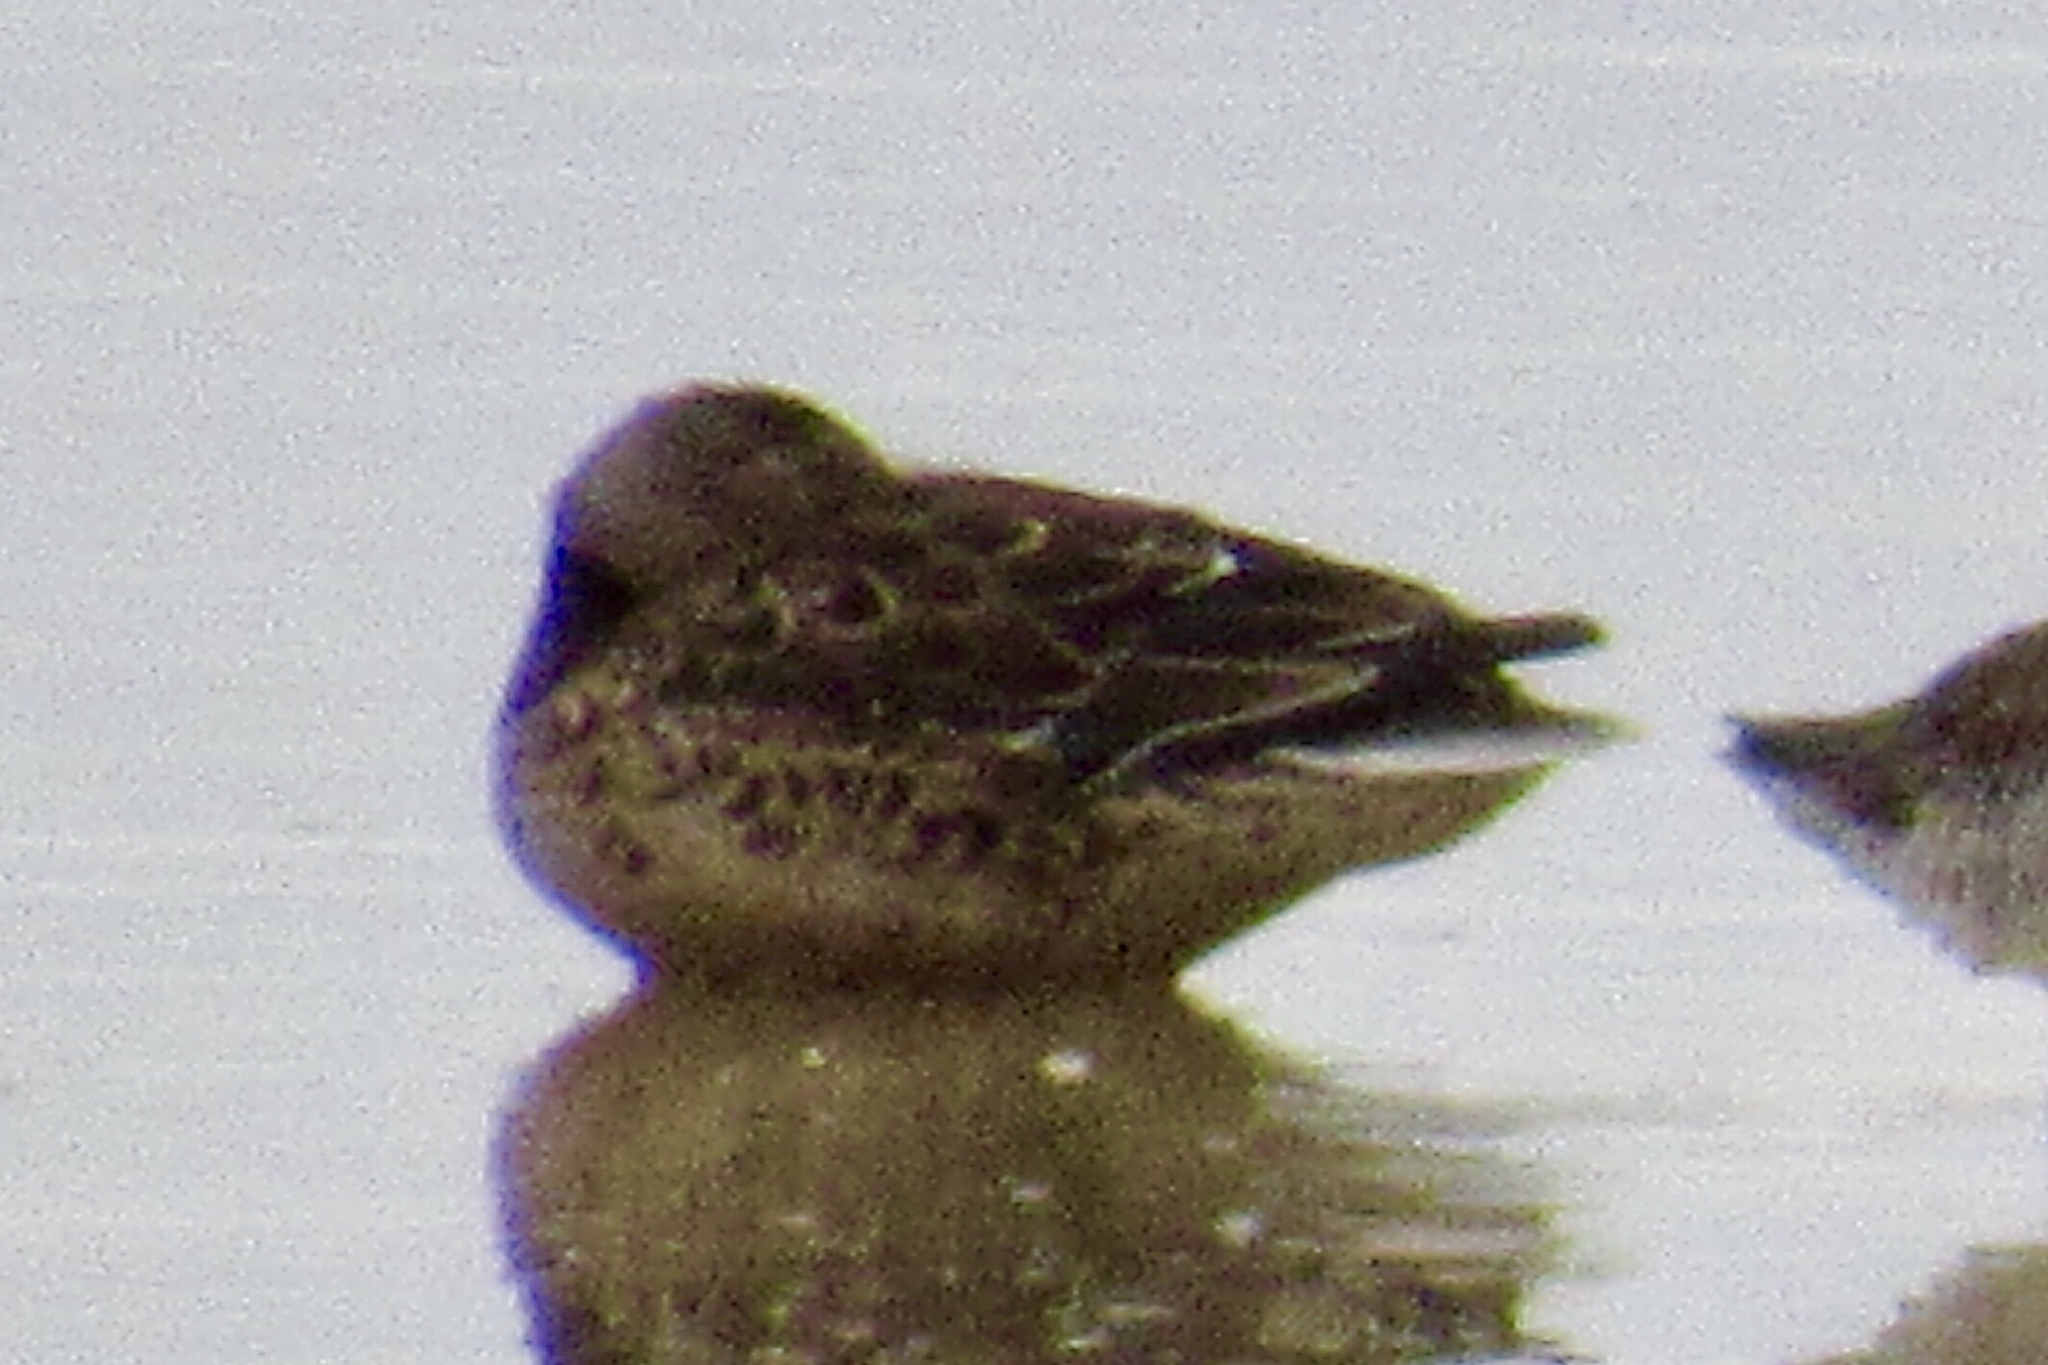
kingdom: Animalia
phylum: Chordata
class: Aves
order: Anseriformes
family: Anatidae
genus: Spatula
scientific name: Spatula clypeata
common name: Northern shoveler
